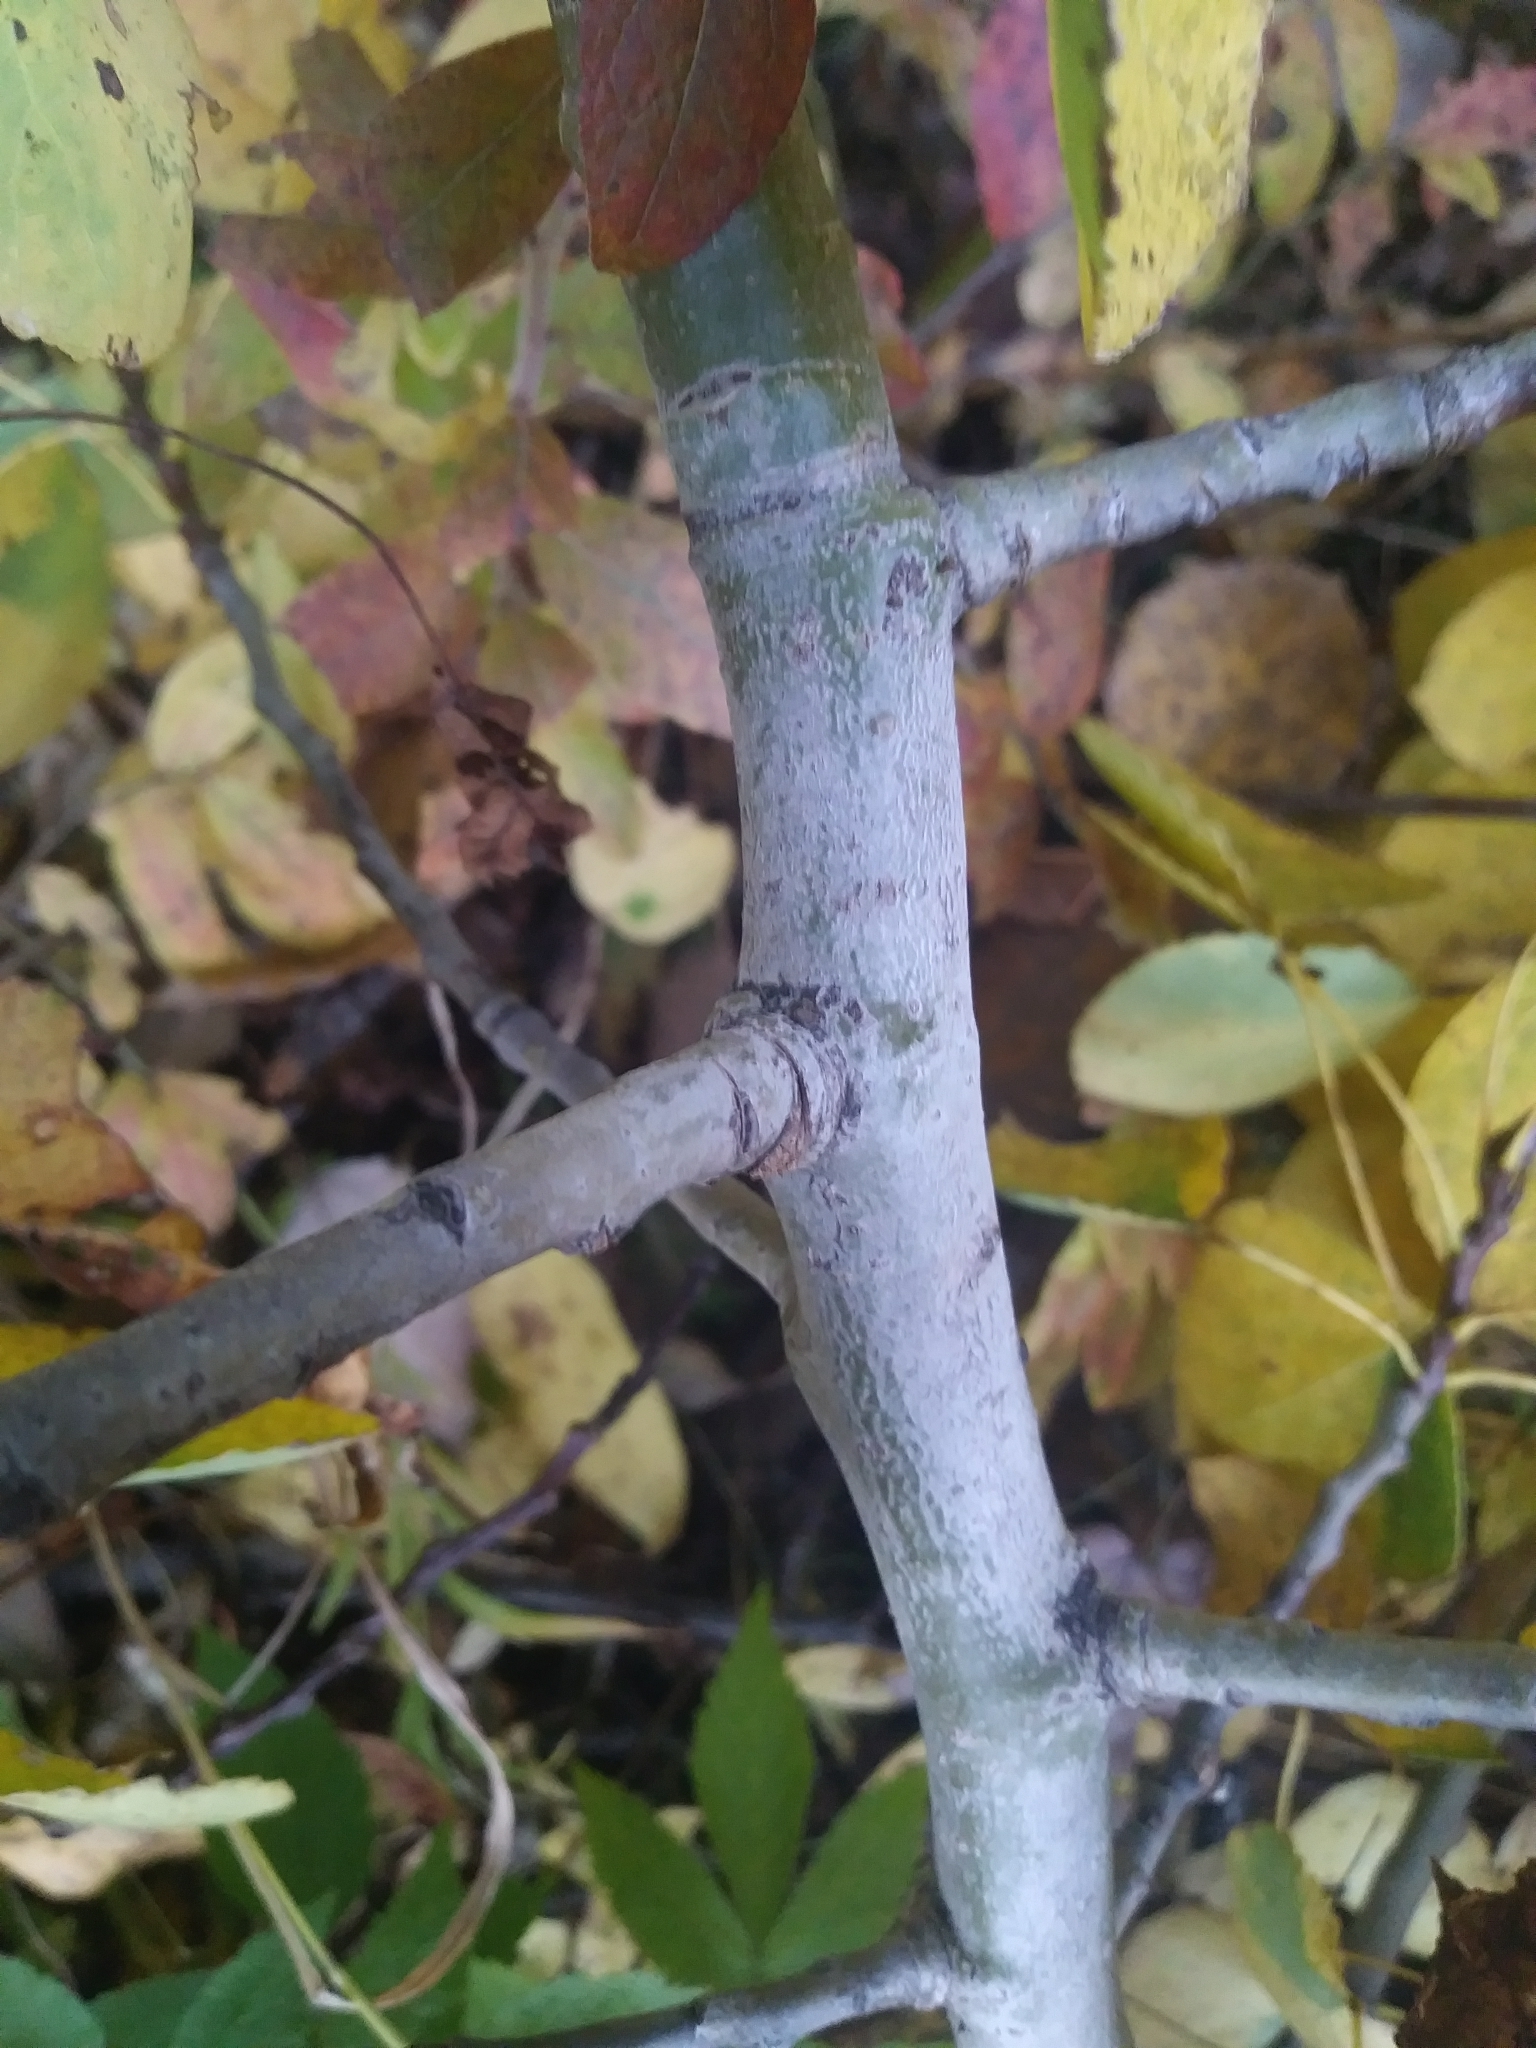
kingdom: Plantae
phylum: Tracheophyta
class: Magnoliopsida
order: Malpighiales
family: Salicaceae
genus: Populus
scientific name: Populus tremuloides
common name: Quaking aspen
